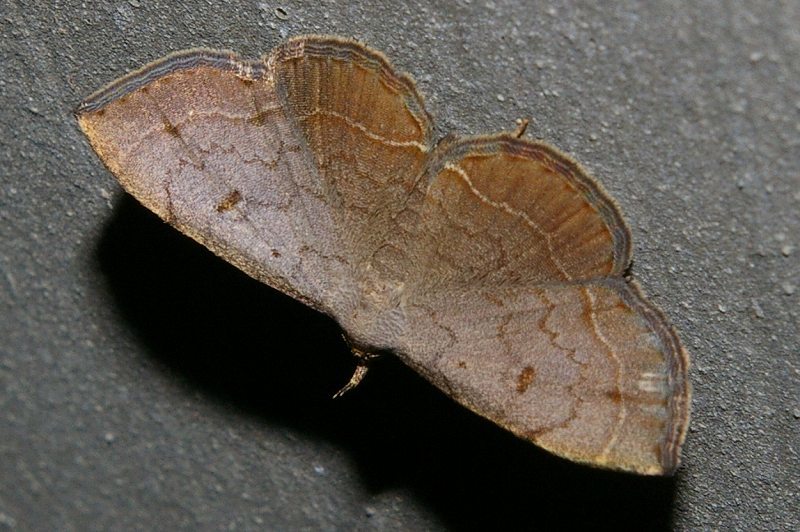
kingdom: Animalia
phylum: Arthropoda
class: Insecta
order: Lepidoptera
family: Erebidae
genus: Herminia
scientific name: Herminia fentoni
